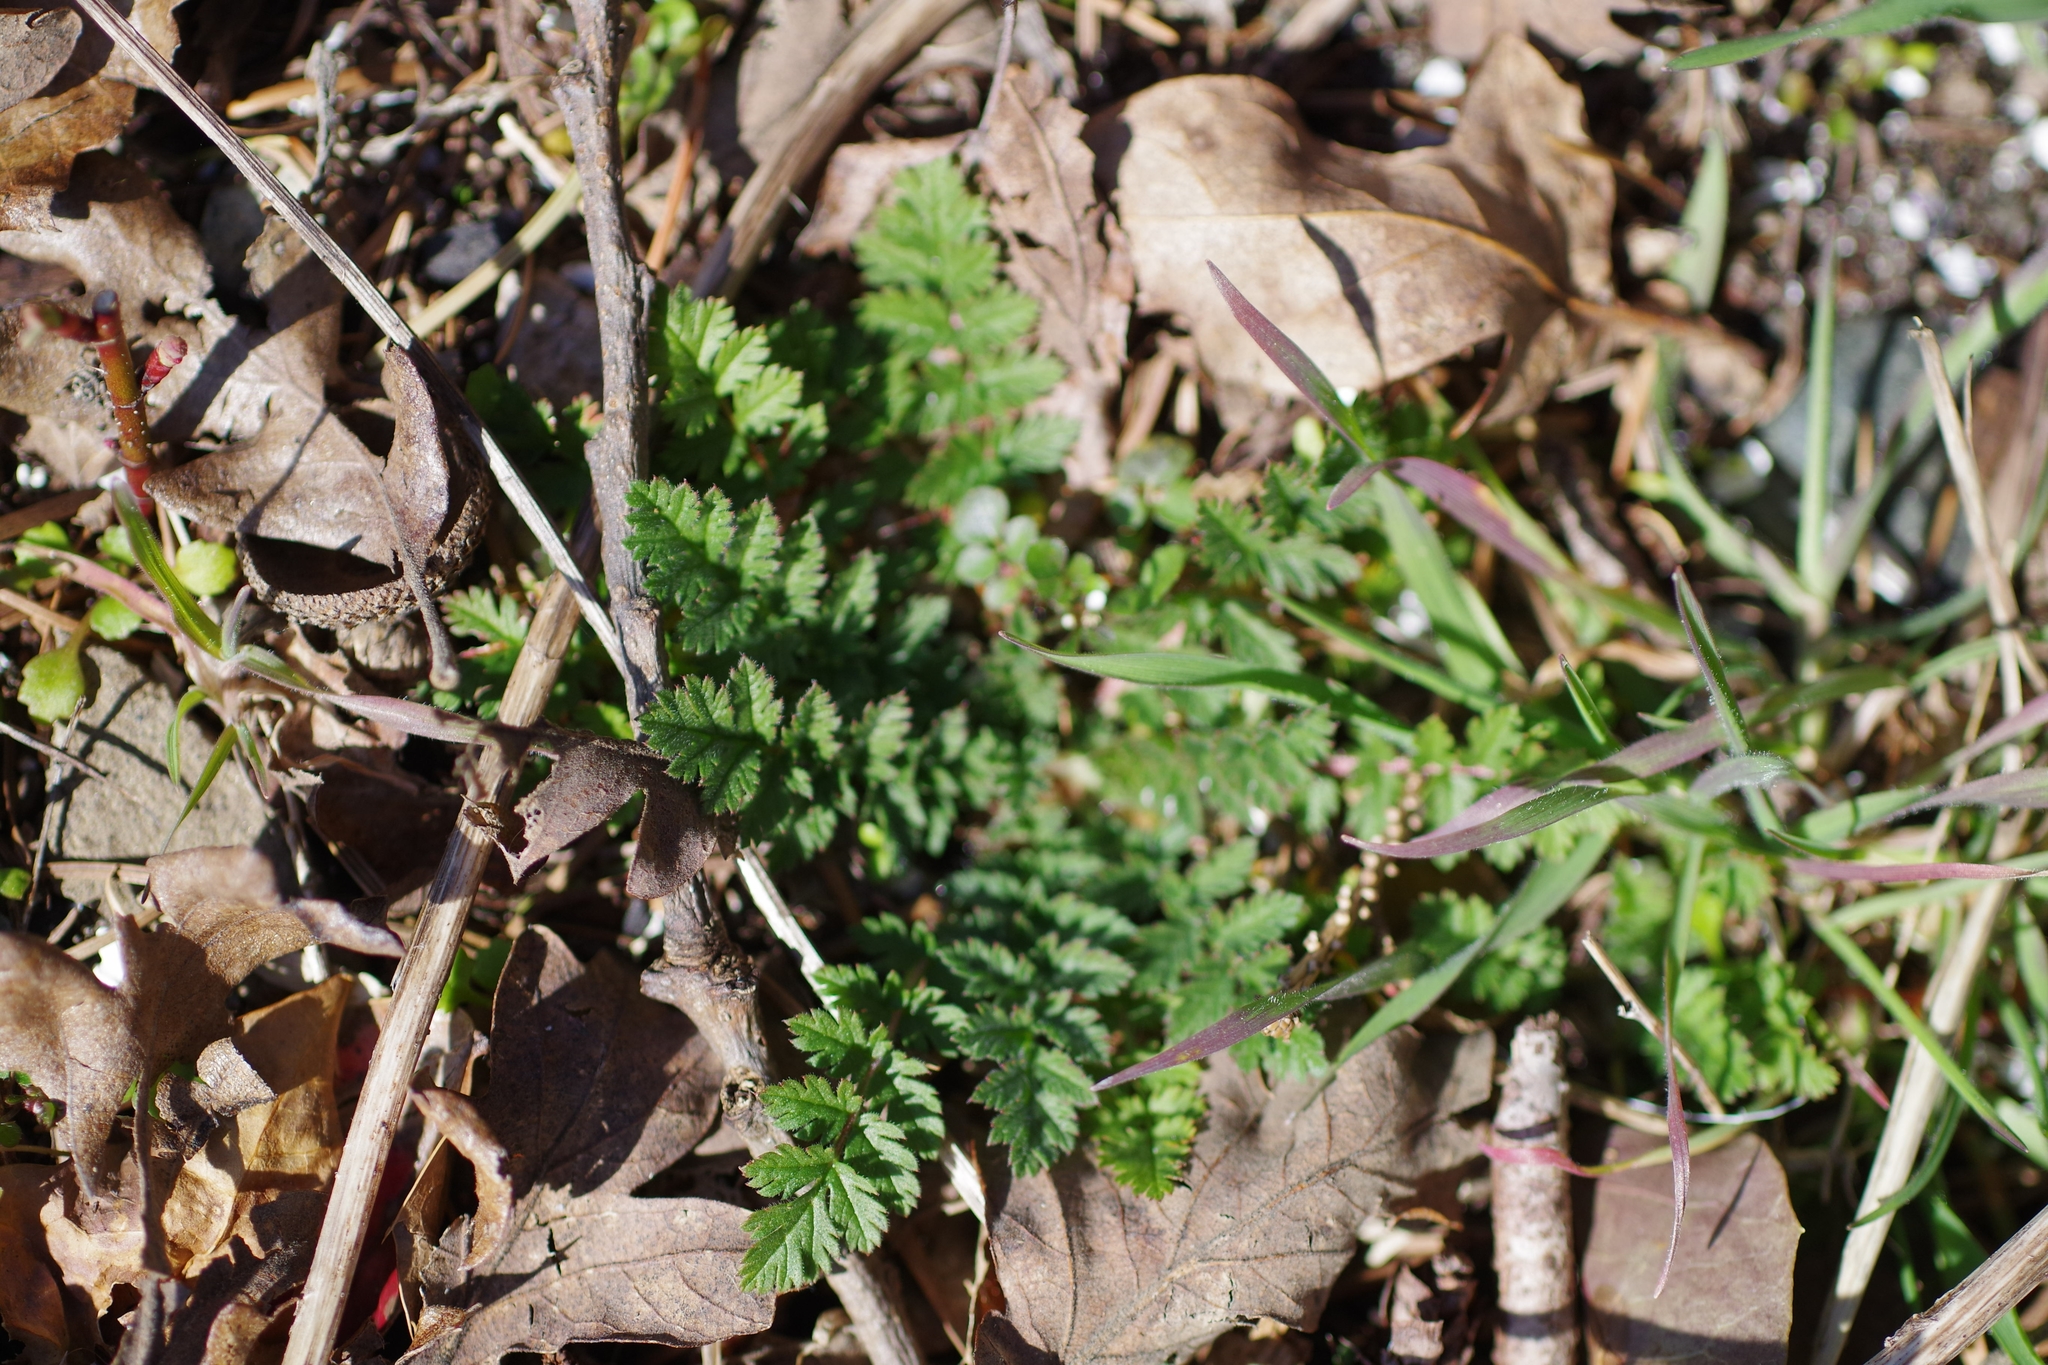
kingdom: Plantae
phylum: Tracheophyta
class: Magnoliopsida
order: Geraniales
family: Geraniaceae
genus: Erodium
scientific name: Erodium cicutarium
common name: Common stork's-bill
